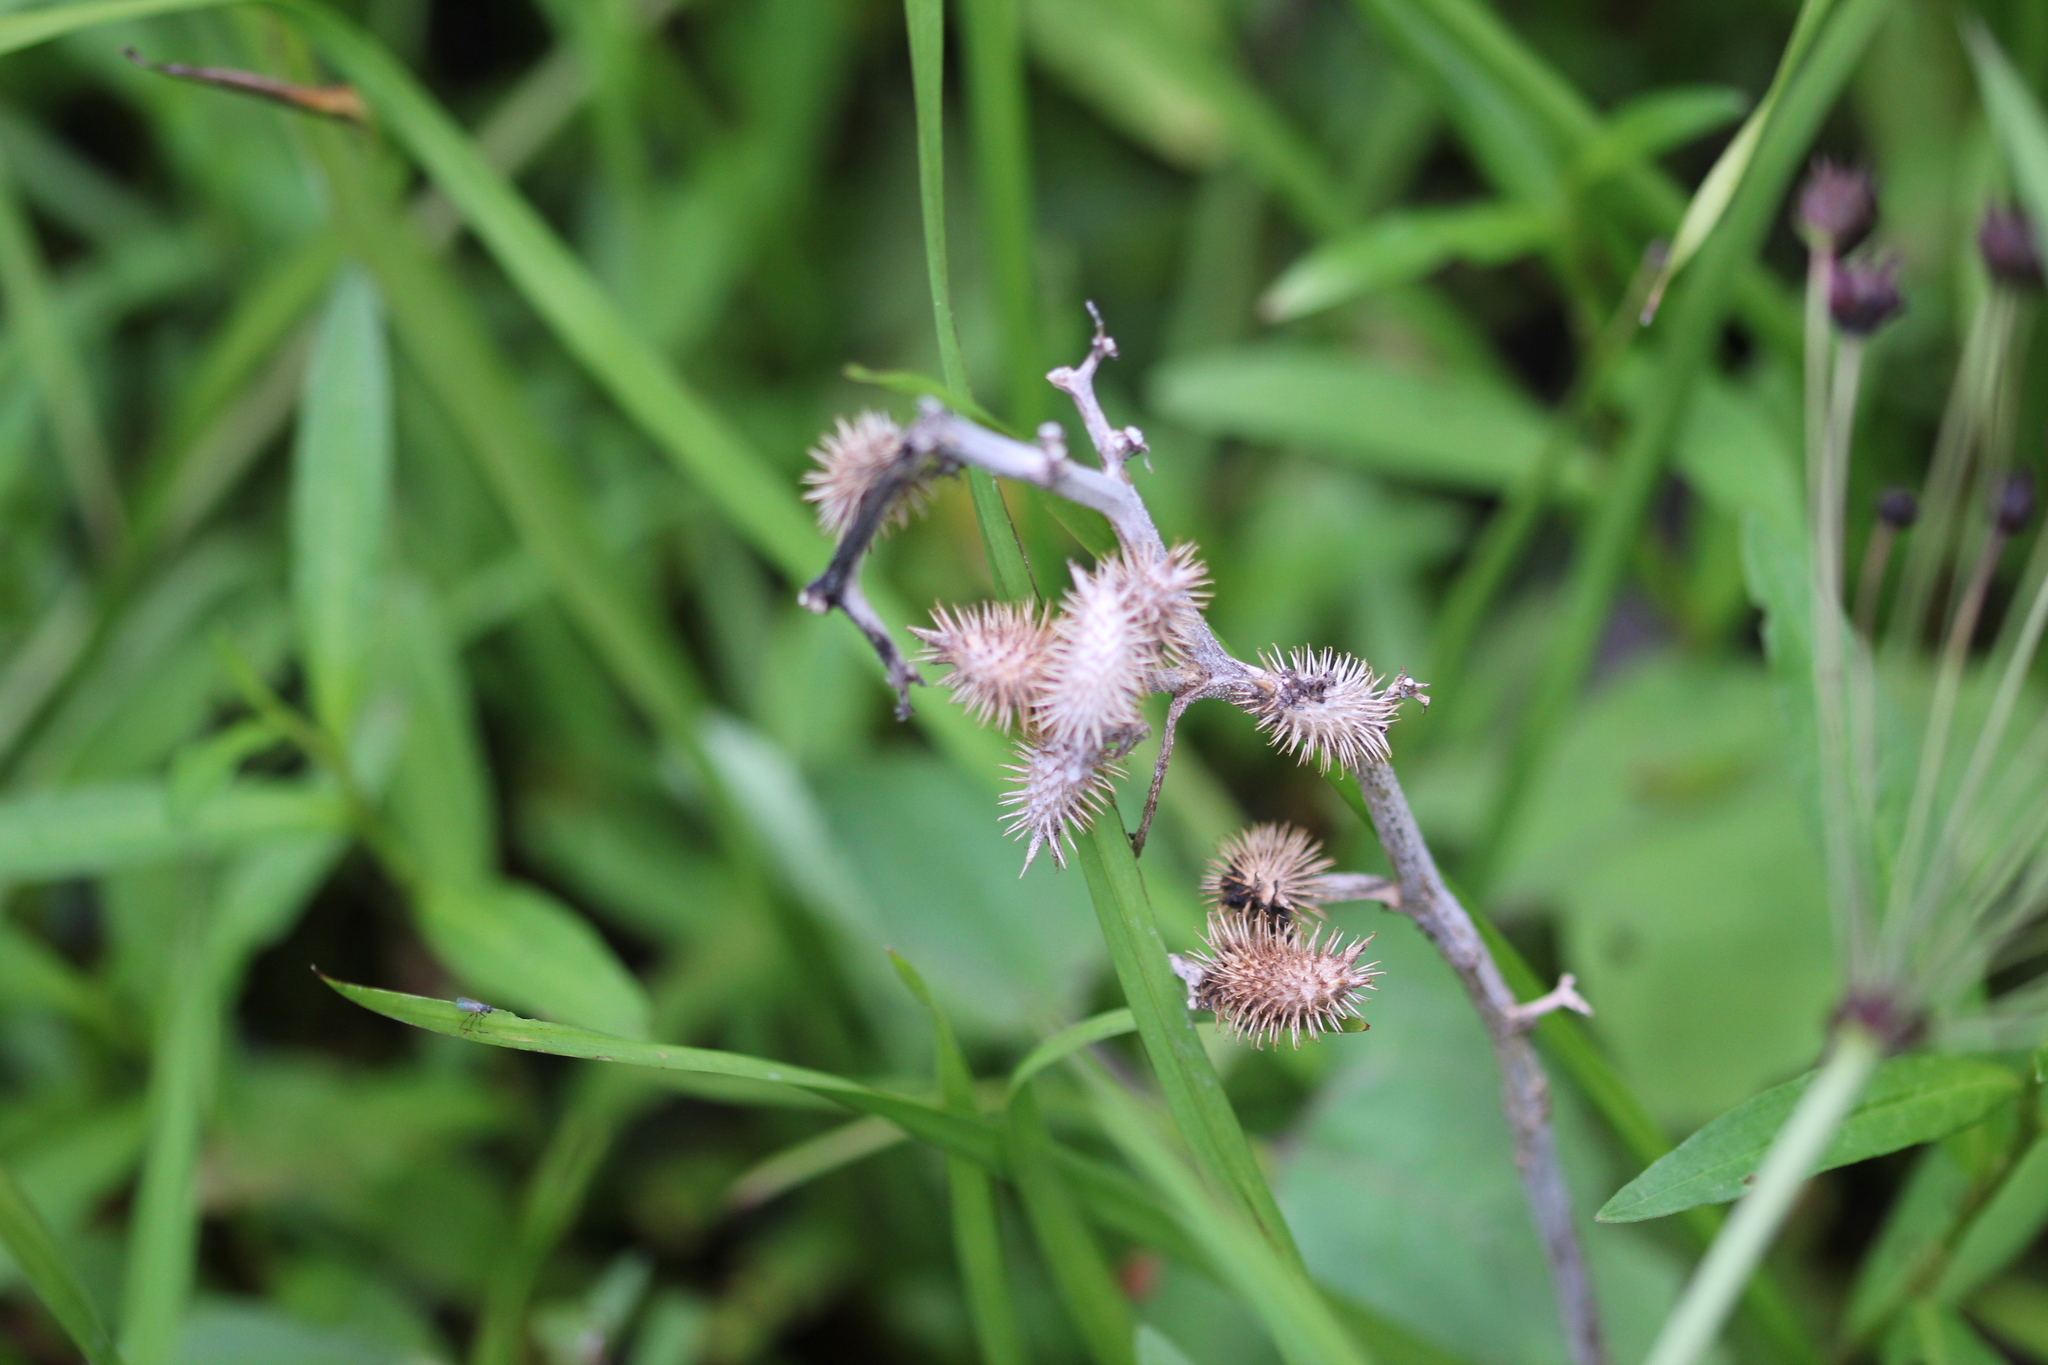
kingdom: Plantae
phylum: Tracheophyta
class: Magnoliopsida
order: Asterales
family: Asteraceae
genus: Xanthium
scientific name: Xanthium strumarium
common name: Rough cocklebur
